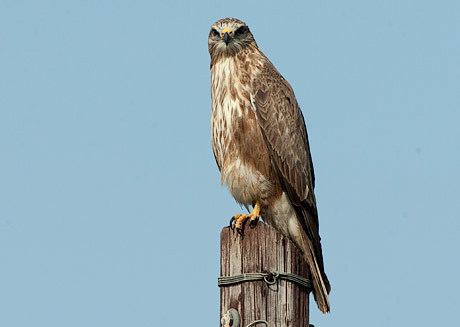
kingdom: Animalia
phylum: Chordata
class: Aves
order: Accipitriformes
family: Accipitridae
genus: Buteo
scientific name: Buteo buteo
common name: Common buzzard
